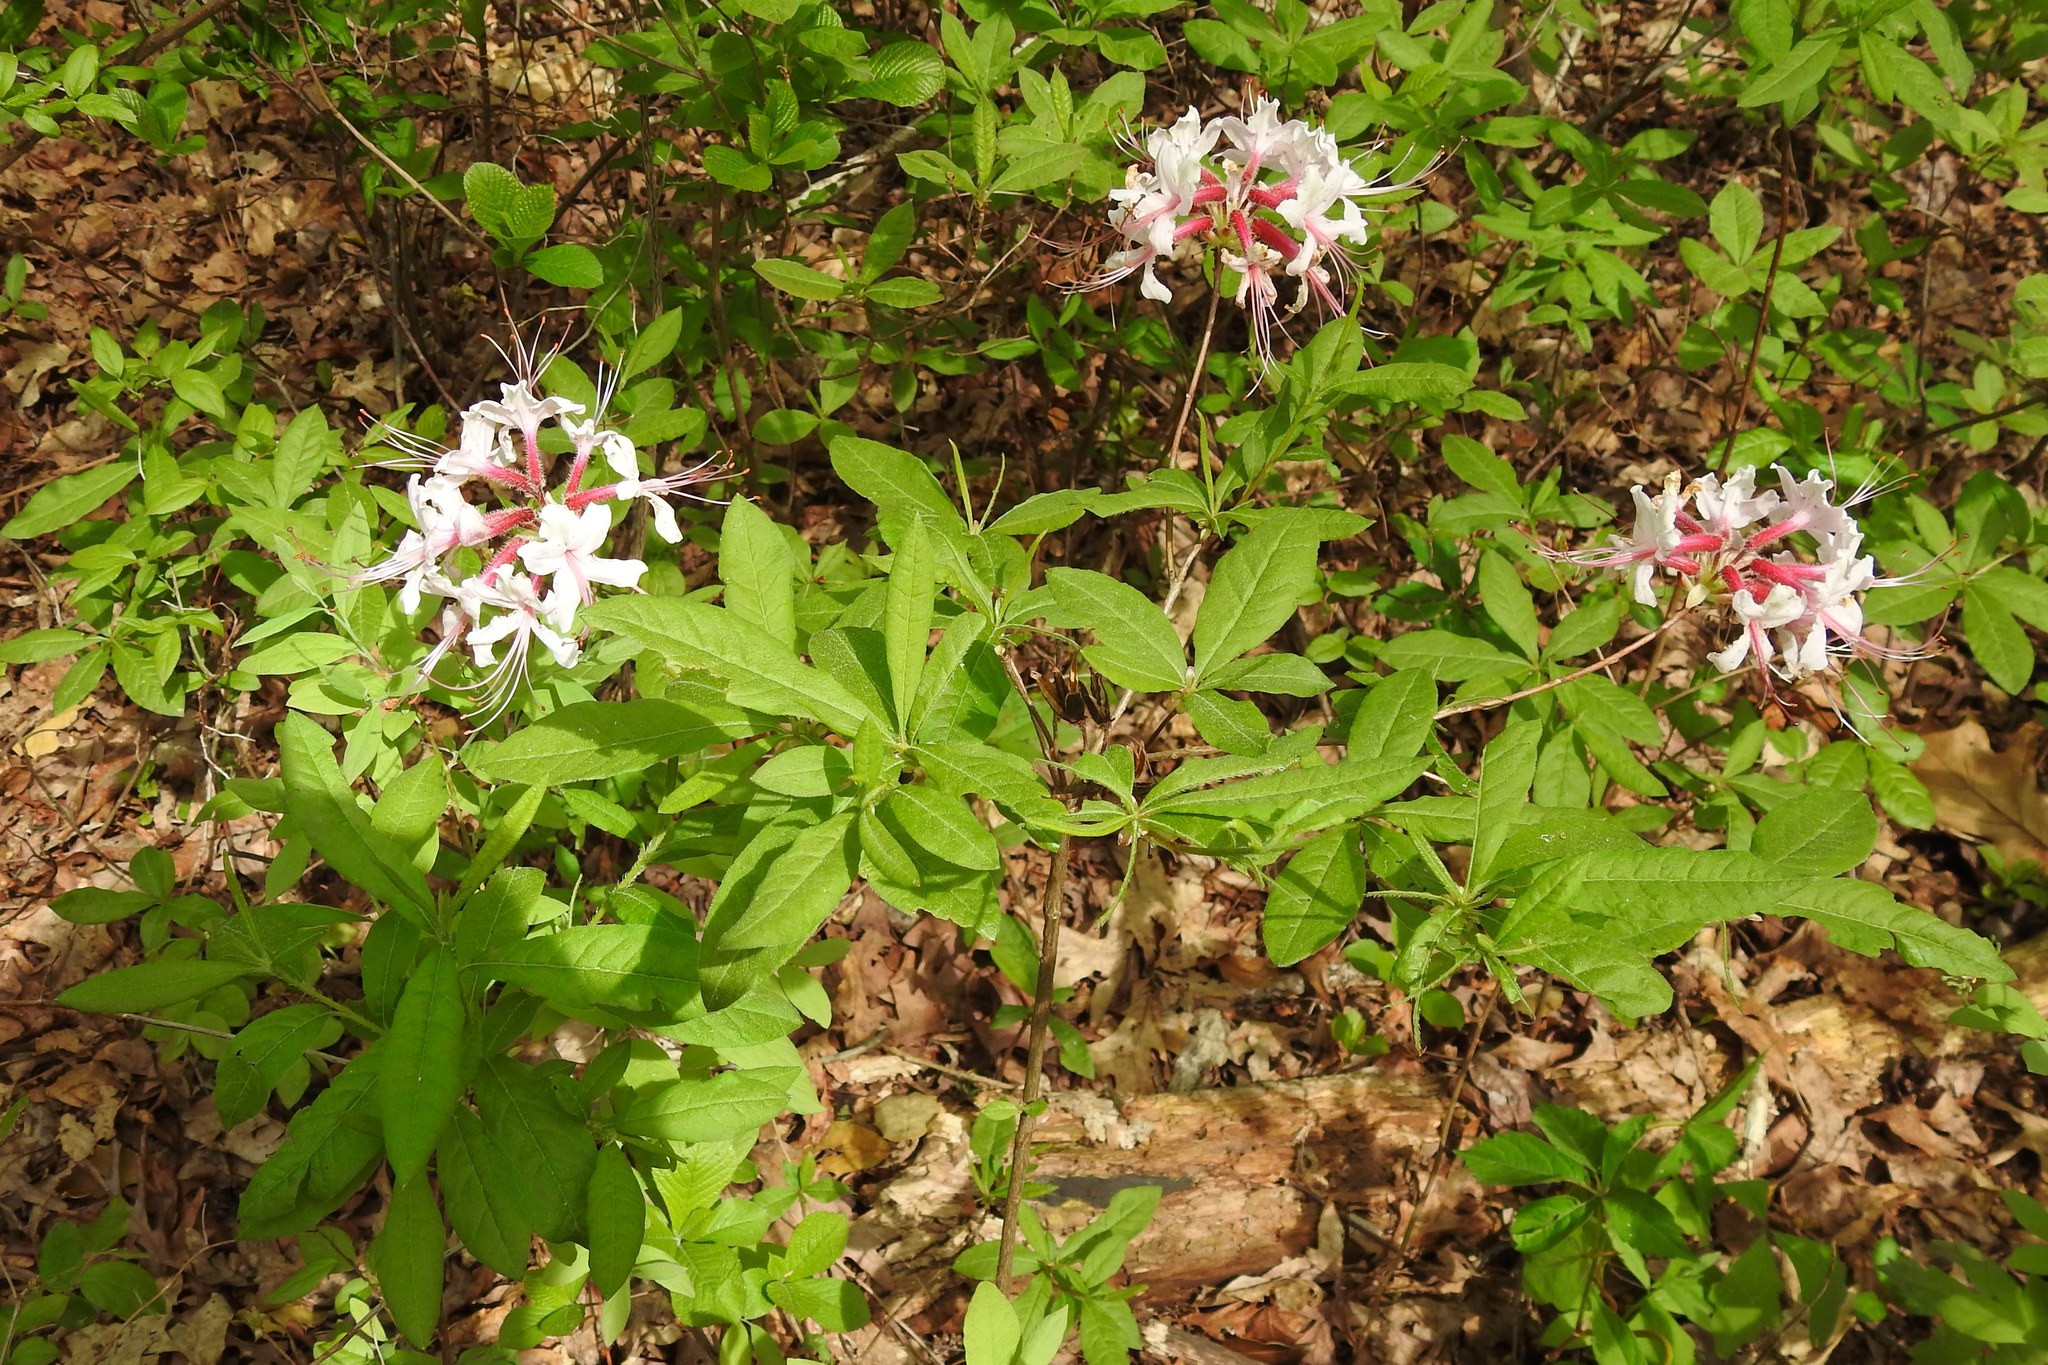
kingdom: Plantae
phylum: Tracheophyta
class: Magnoliopsida
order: Ericales
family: Ericaceae
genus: Rhododendron
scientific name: Rhododendron periclymenoides
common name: Election-pink
